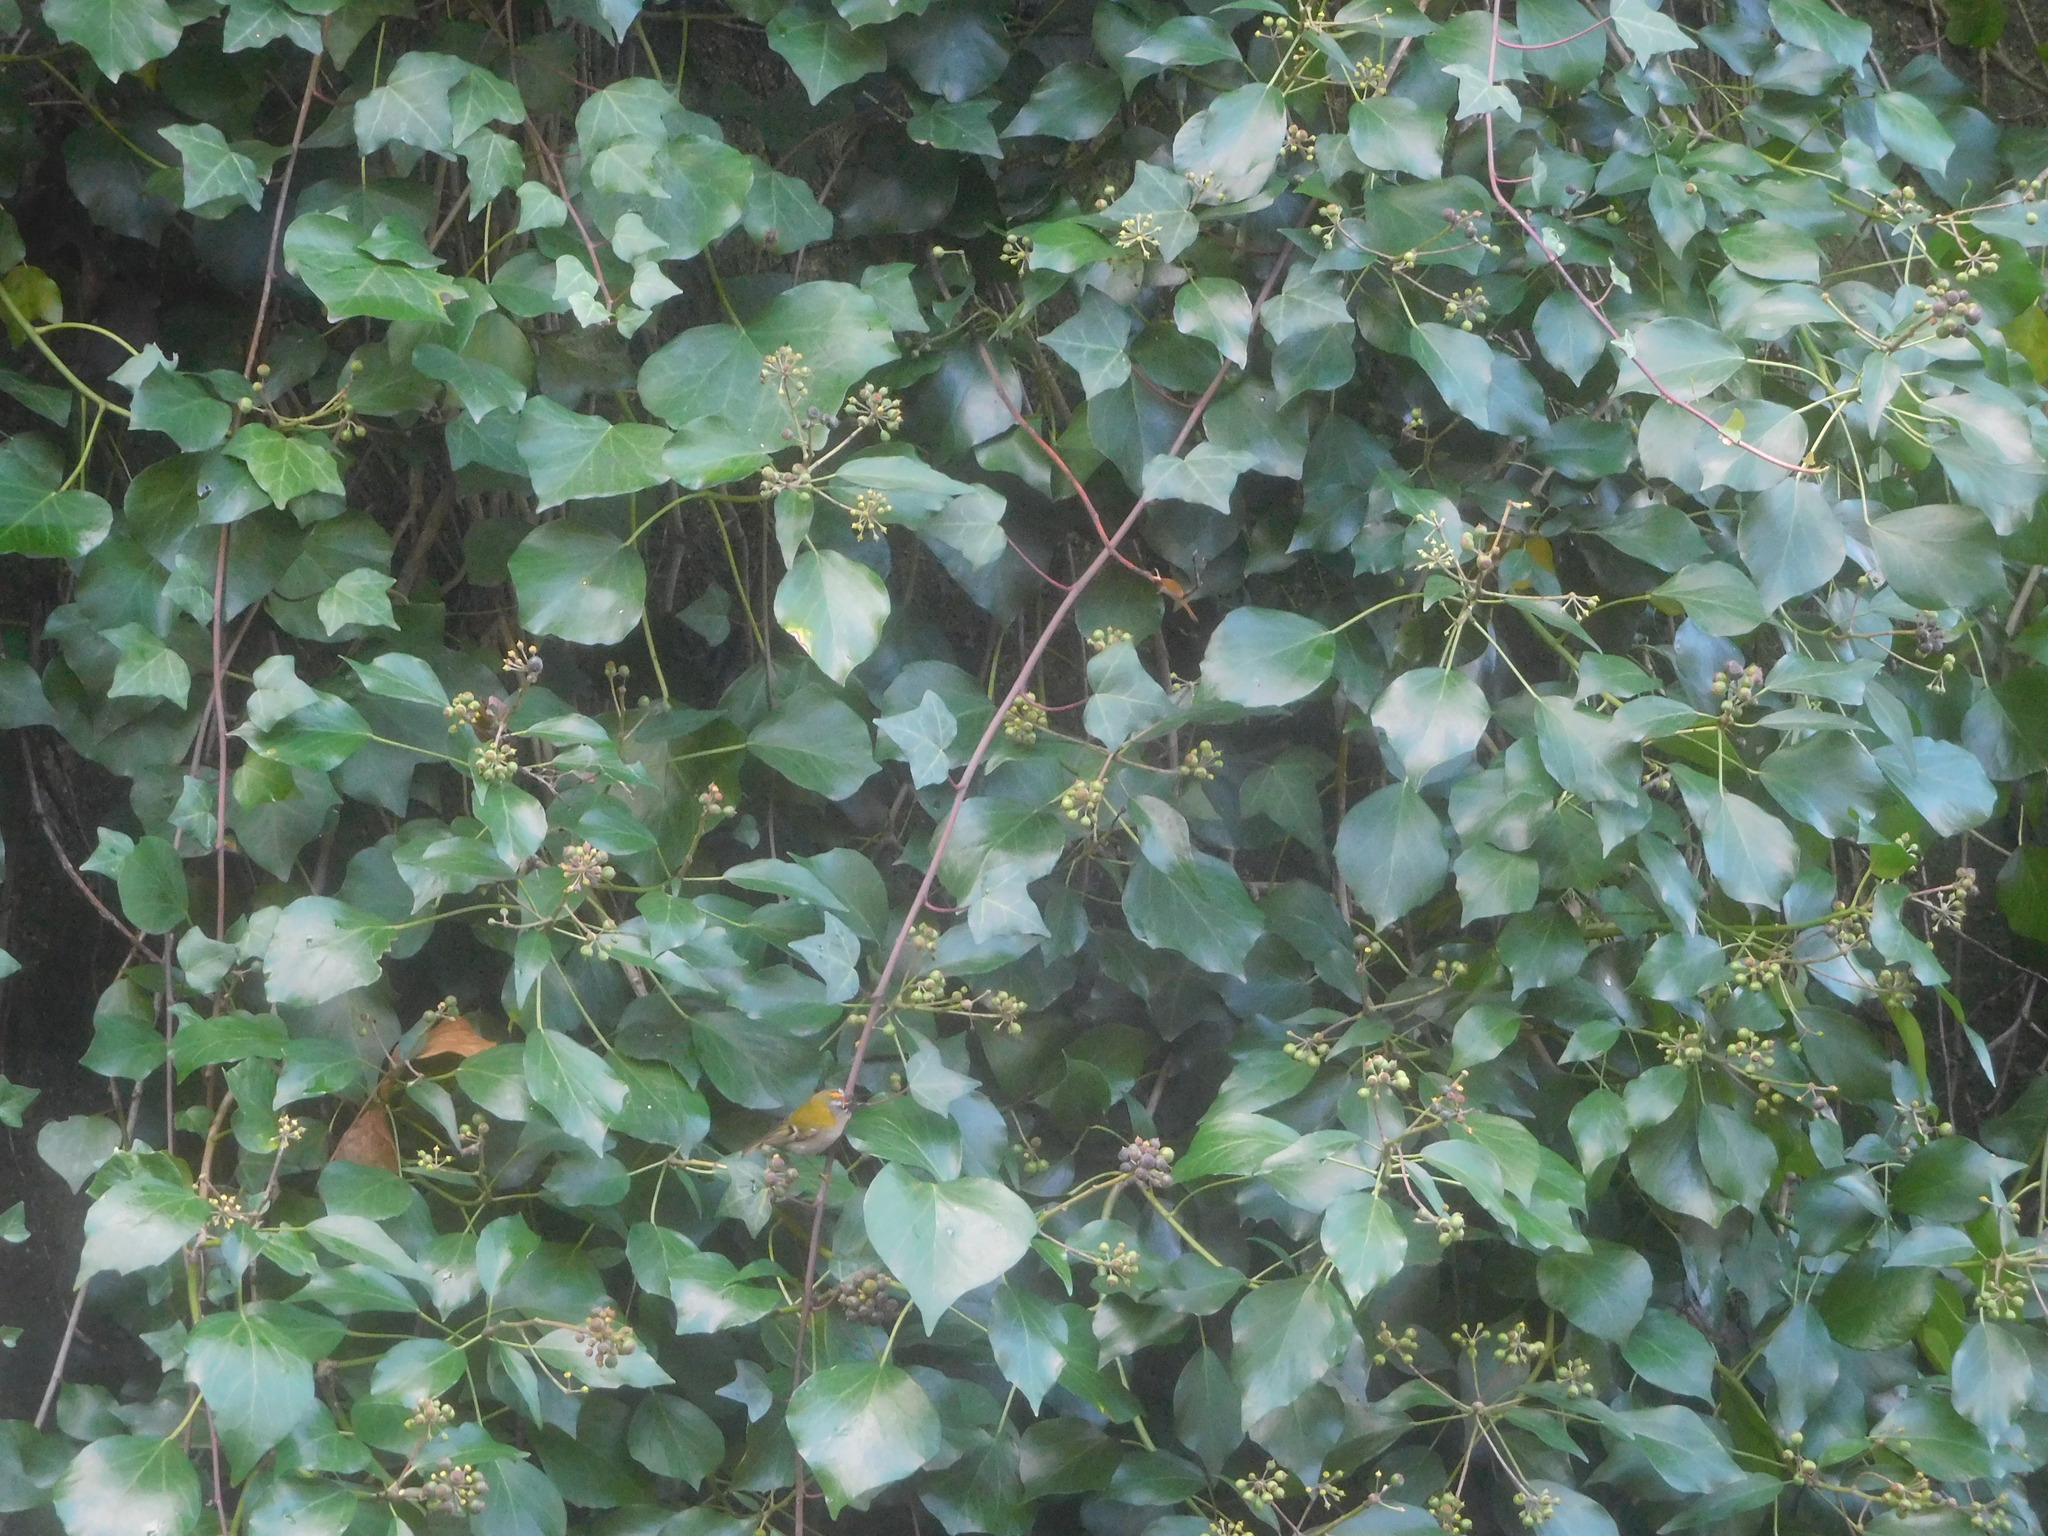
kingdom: Animalia
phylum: Chordata
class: Aves
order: Passeriformes
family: Regulidae
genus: Regulus
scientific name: Regulus ignicapilla
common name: Firecrest
